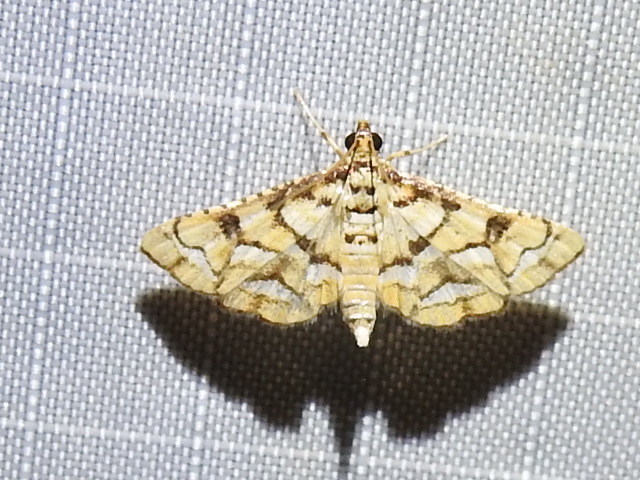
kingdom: Animalia
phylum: Arthropoda
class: Insecta
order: Lepidoptera
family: Crambidae
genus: Hileithia
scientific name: Hileithia magualis
